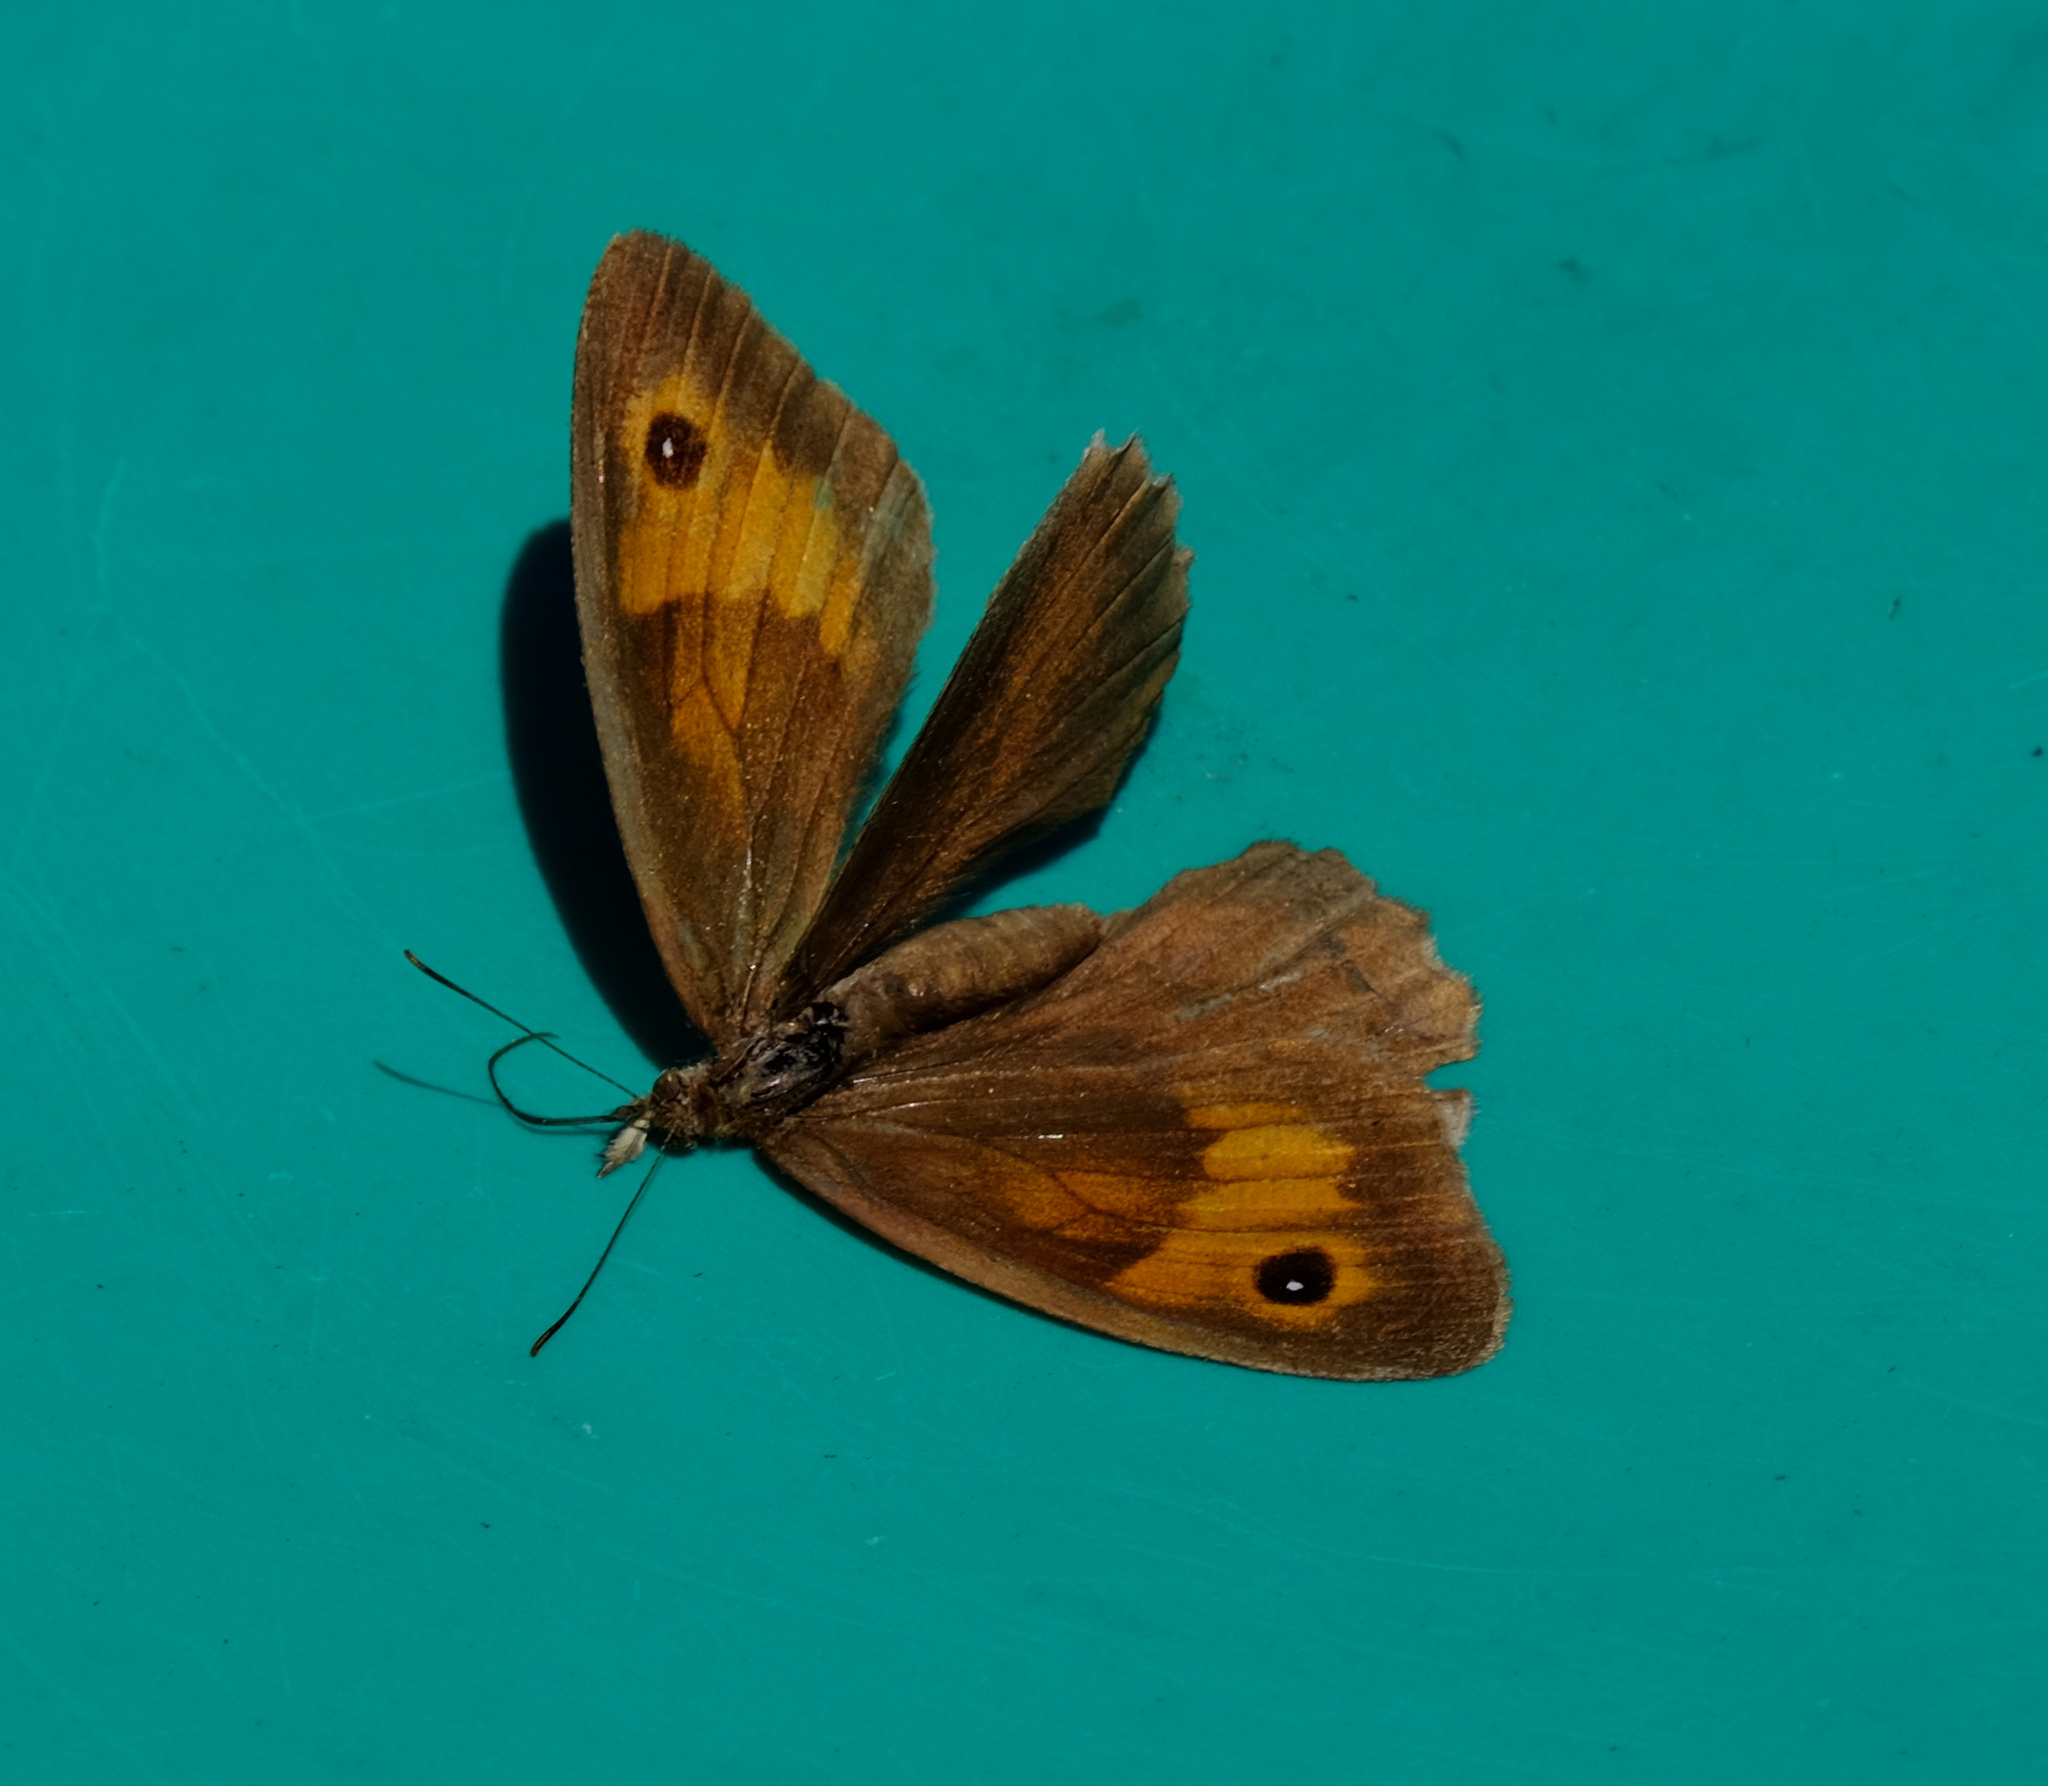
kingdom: Animalia
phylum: Arthropoda
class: Insecta
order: Lepidoptera
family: Nymphalidae
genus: Maniola
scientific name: Maniola jurtina
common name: Meadow brown
